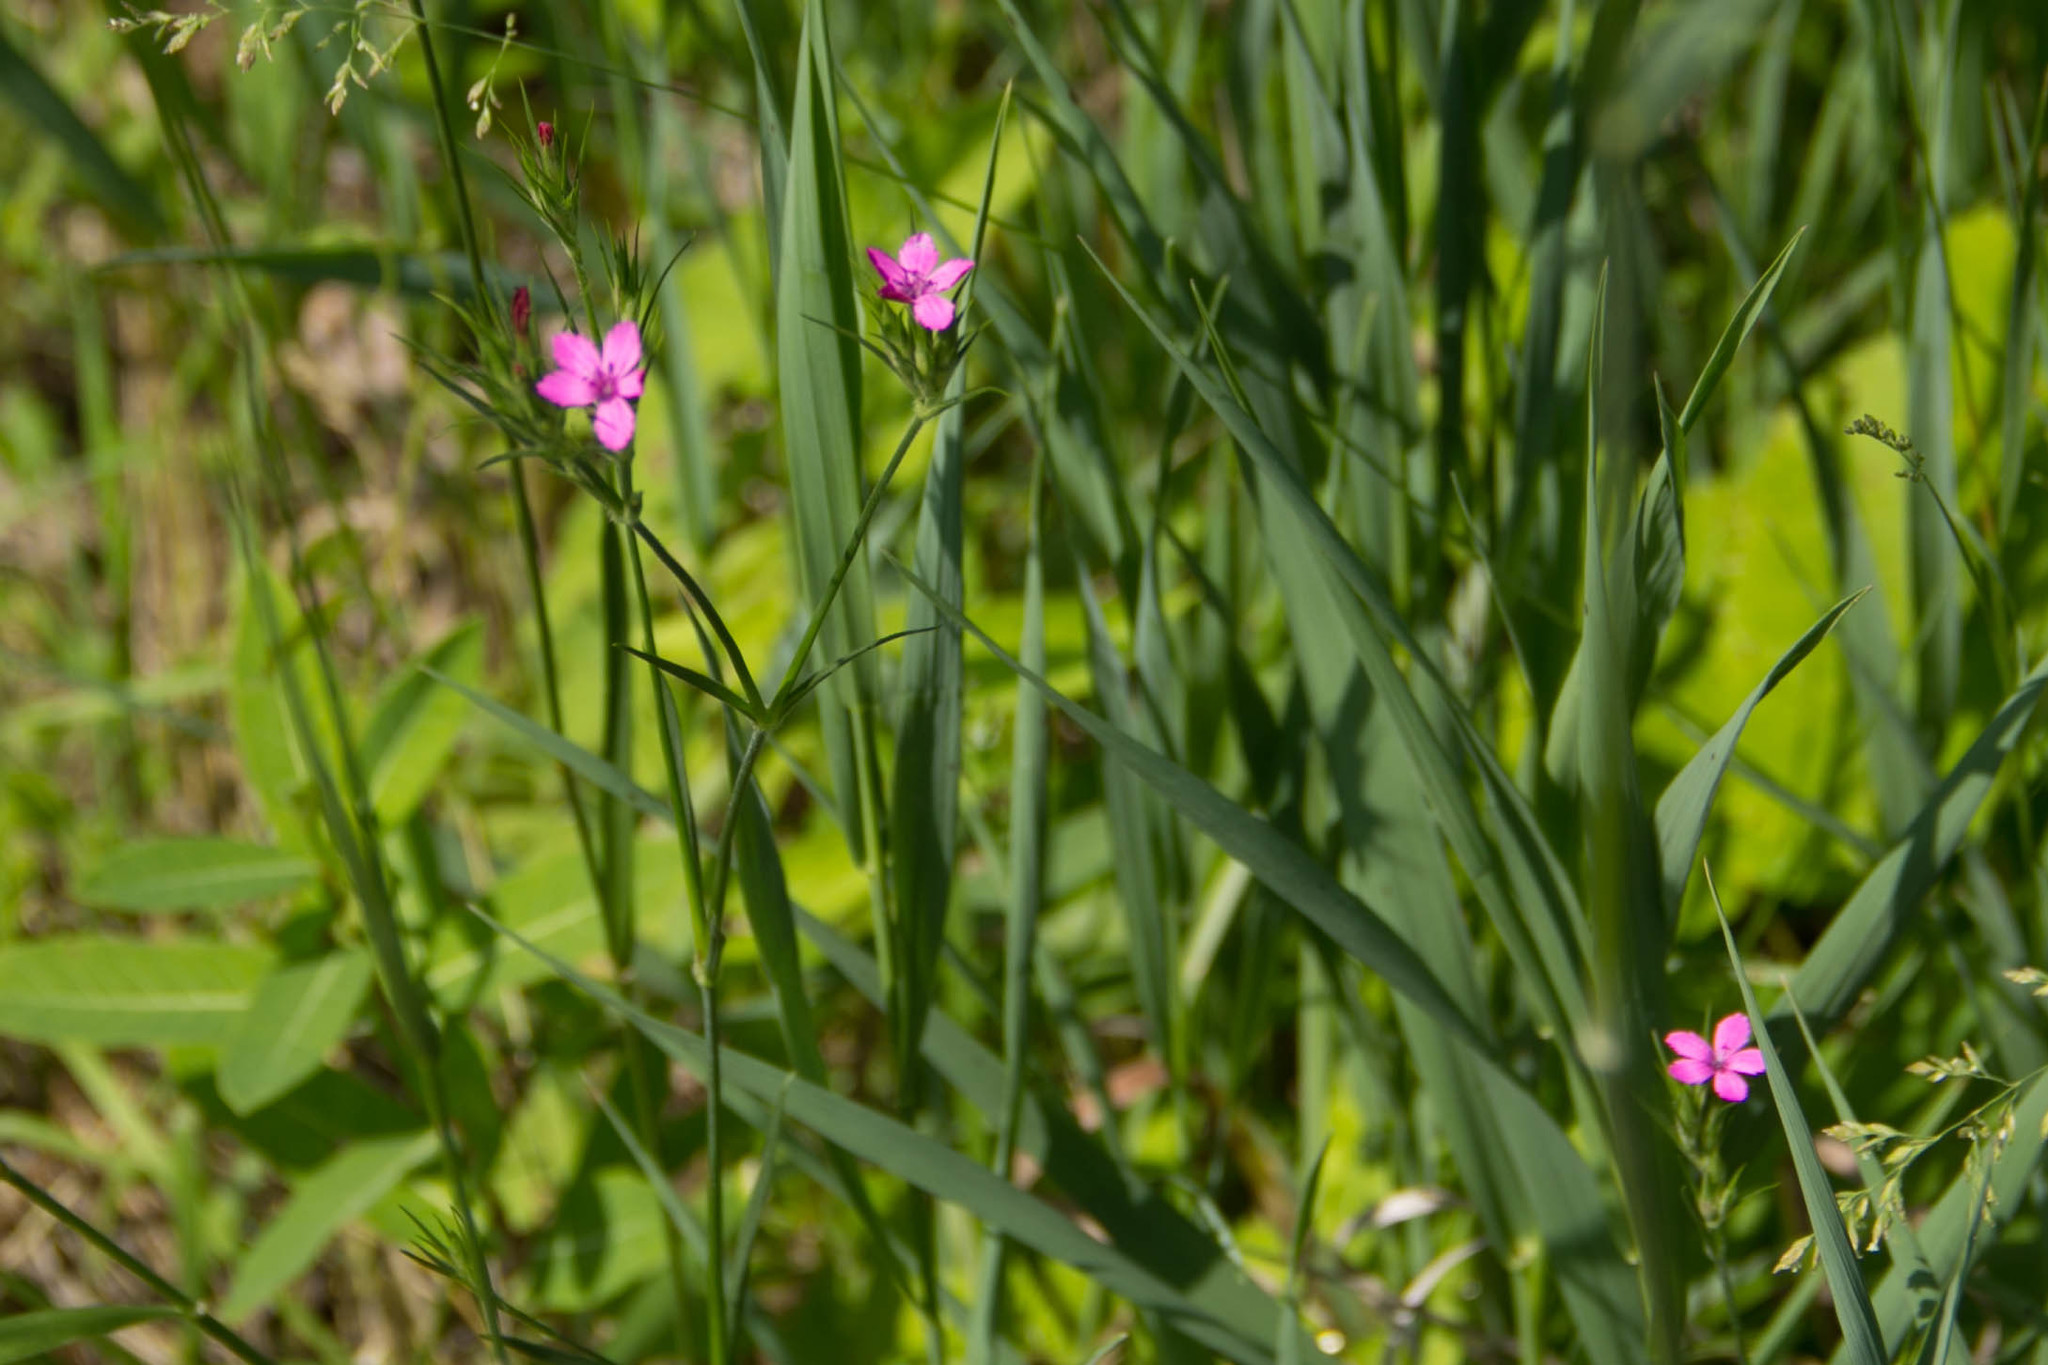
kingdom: Plantae
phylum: Tracheophyta
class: Magnoliopsida
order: Caryophyllales
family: Caryophyllaceae
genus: Dianthus
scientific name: Dianthus armeria
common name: Deptford pink
